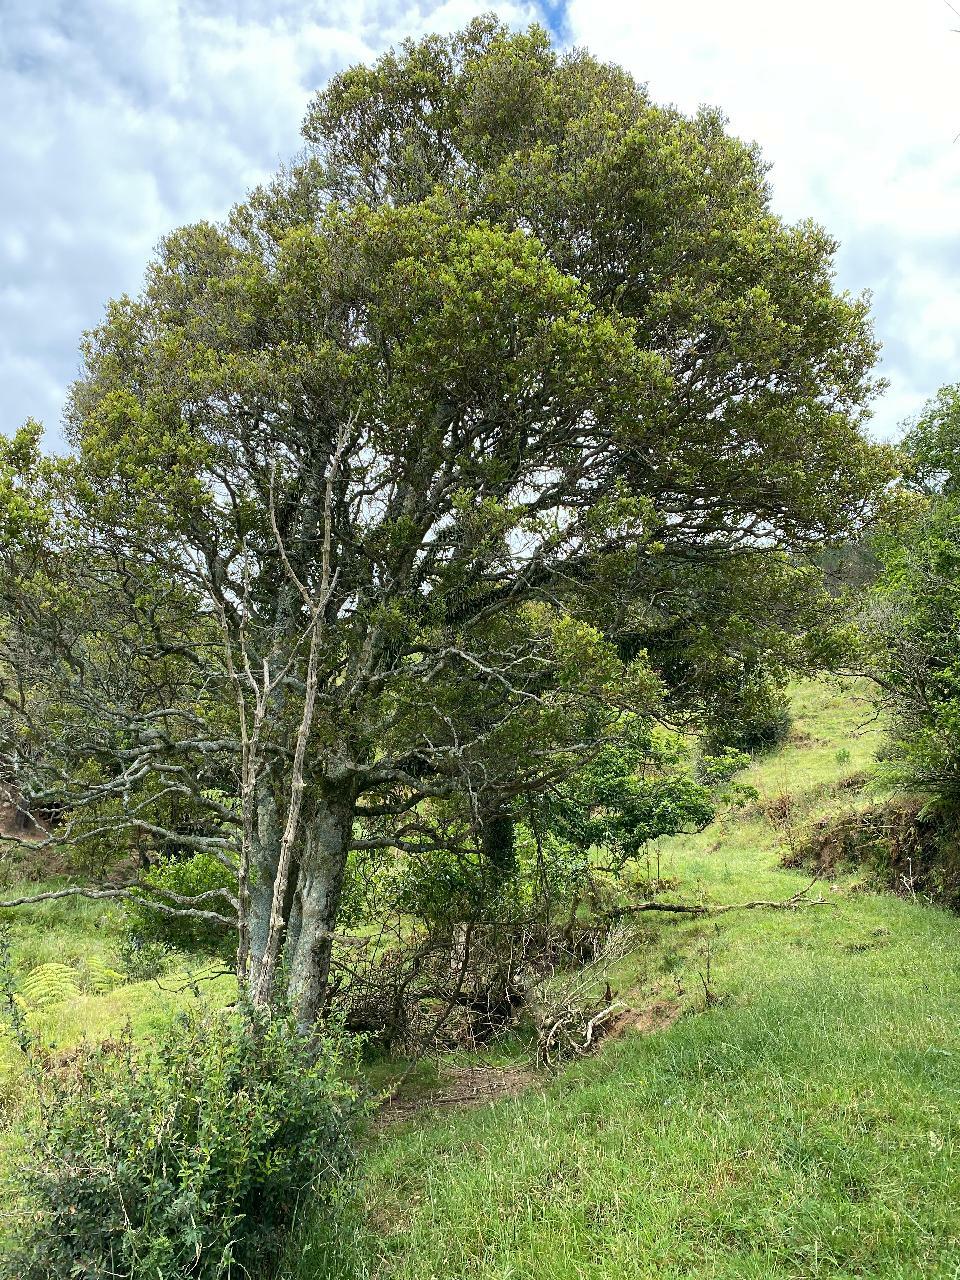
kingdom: Plantae
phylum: Tracheophyta
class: Magnoliopsida
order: Myrtales
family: Myrtaceae
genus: Syzygium
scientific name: Syzygium maire
